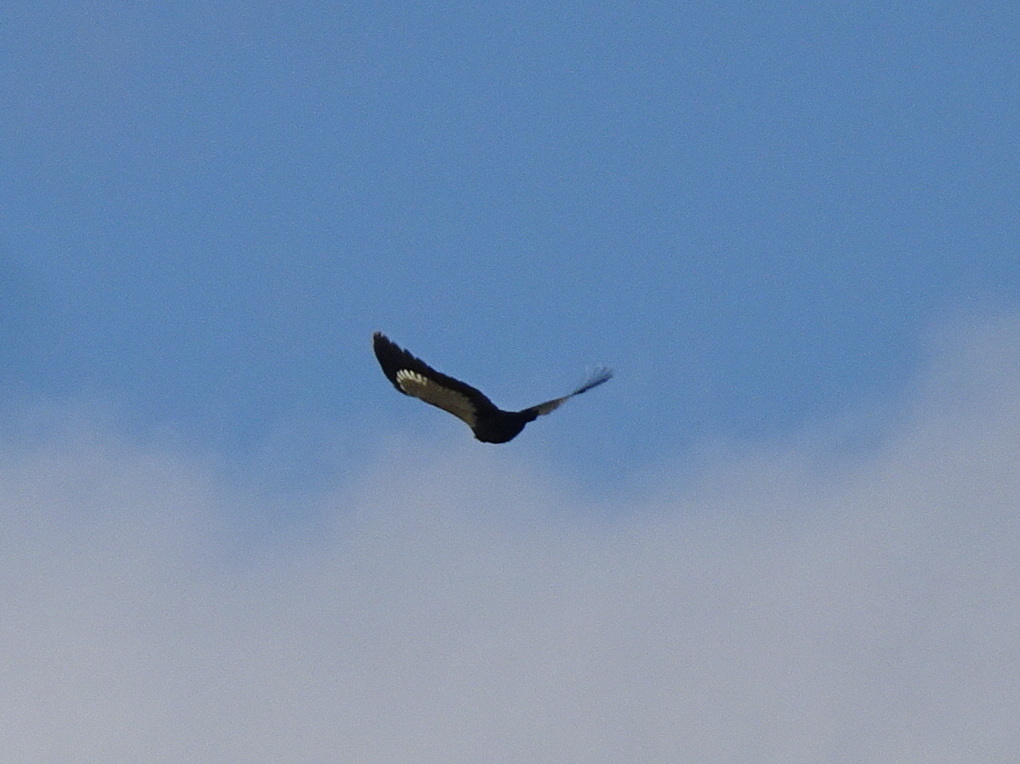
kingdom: Animalia
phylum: Chordata
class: Aves
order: Piciformes
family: Picidae
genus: Dryocopus
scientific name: Dryocopus pileatus
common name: Pileated woodpecker
